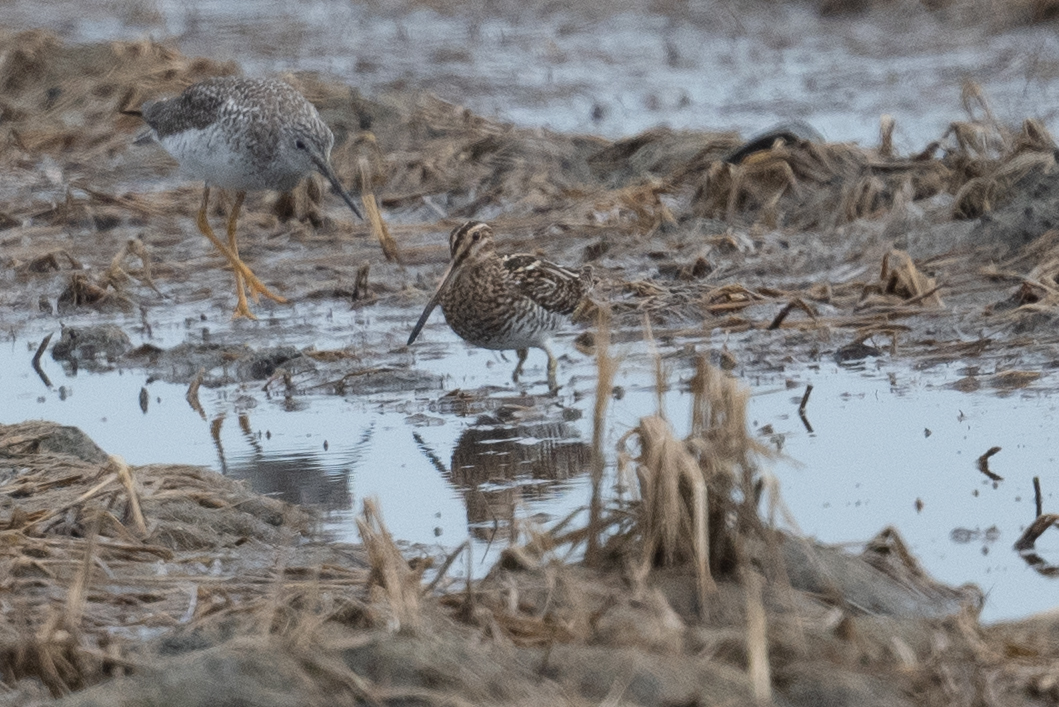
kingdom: Animalia
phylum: Chordata
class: Aves
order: Charadriiformes
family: Scolopacidae
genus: Gallinago
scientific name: Gallinago delicata
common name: Wilson's snipe
